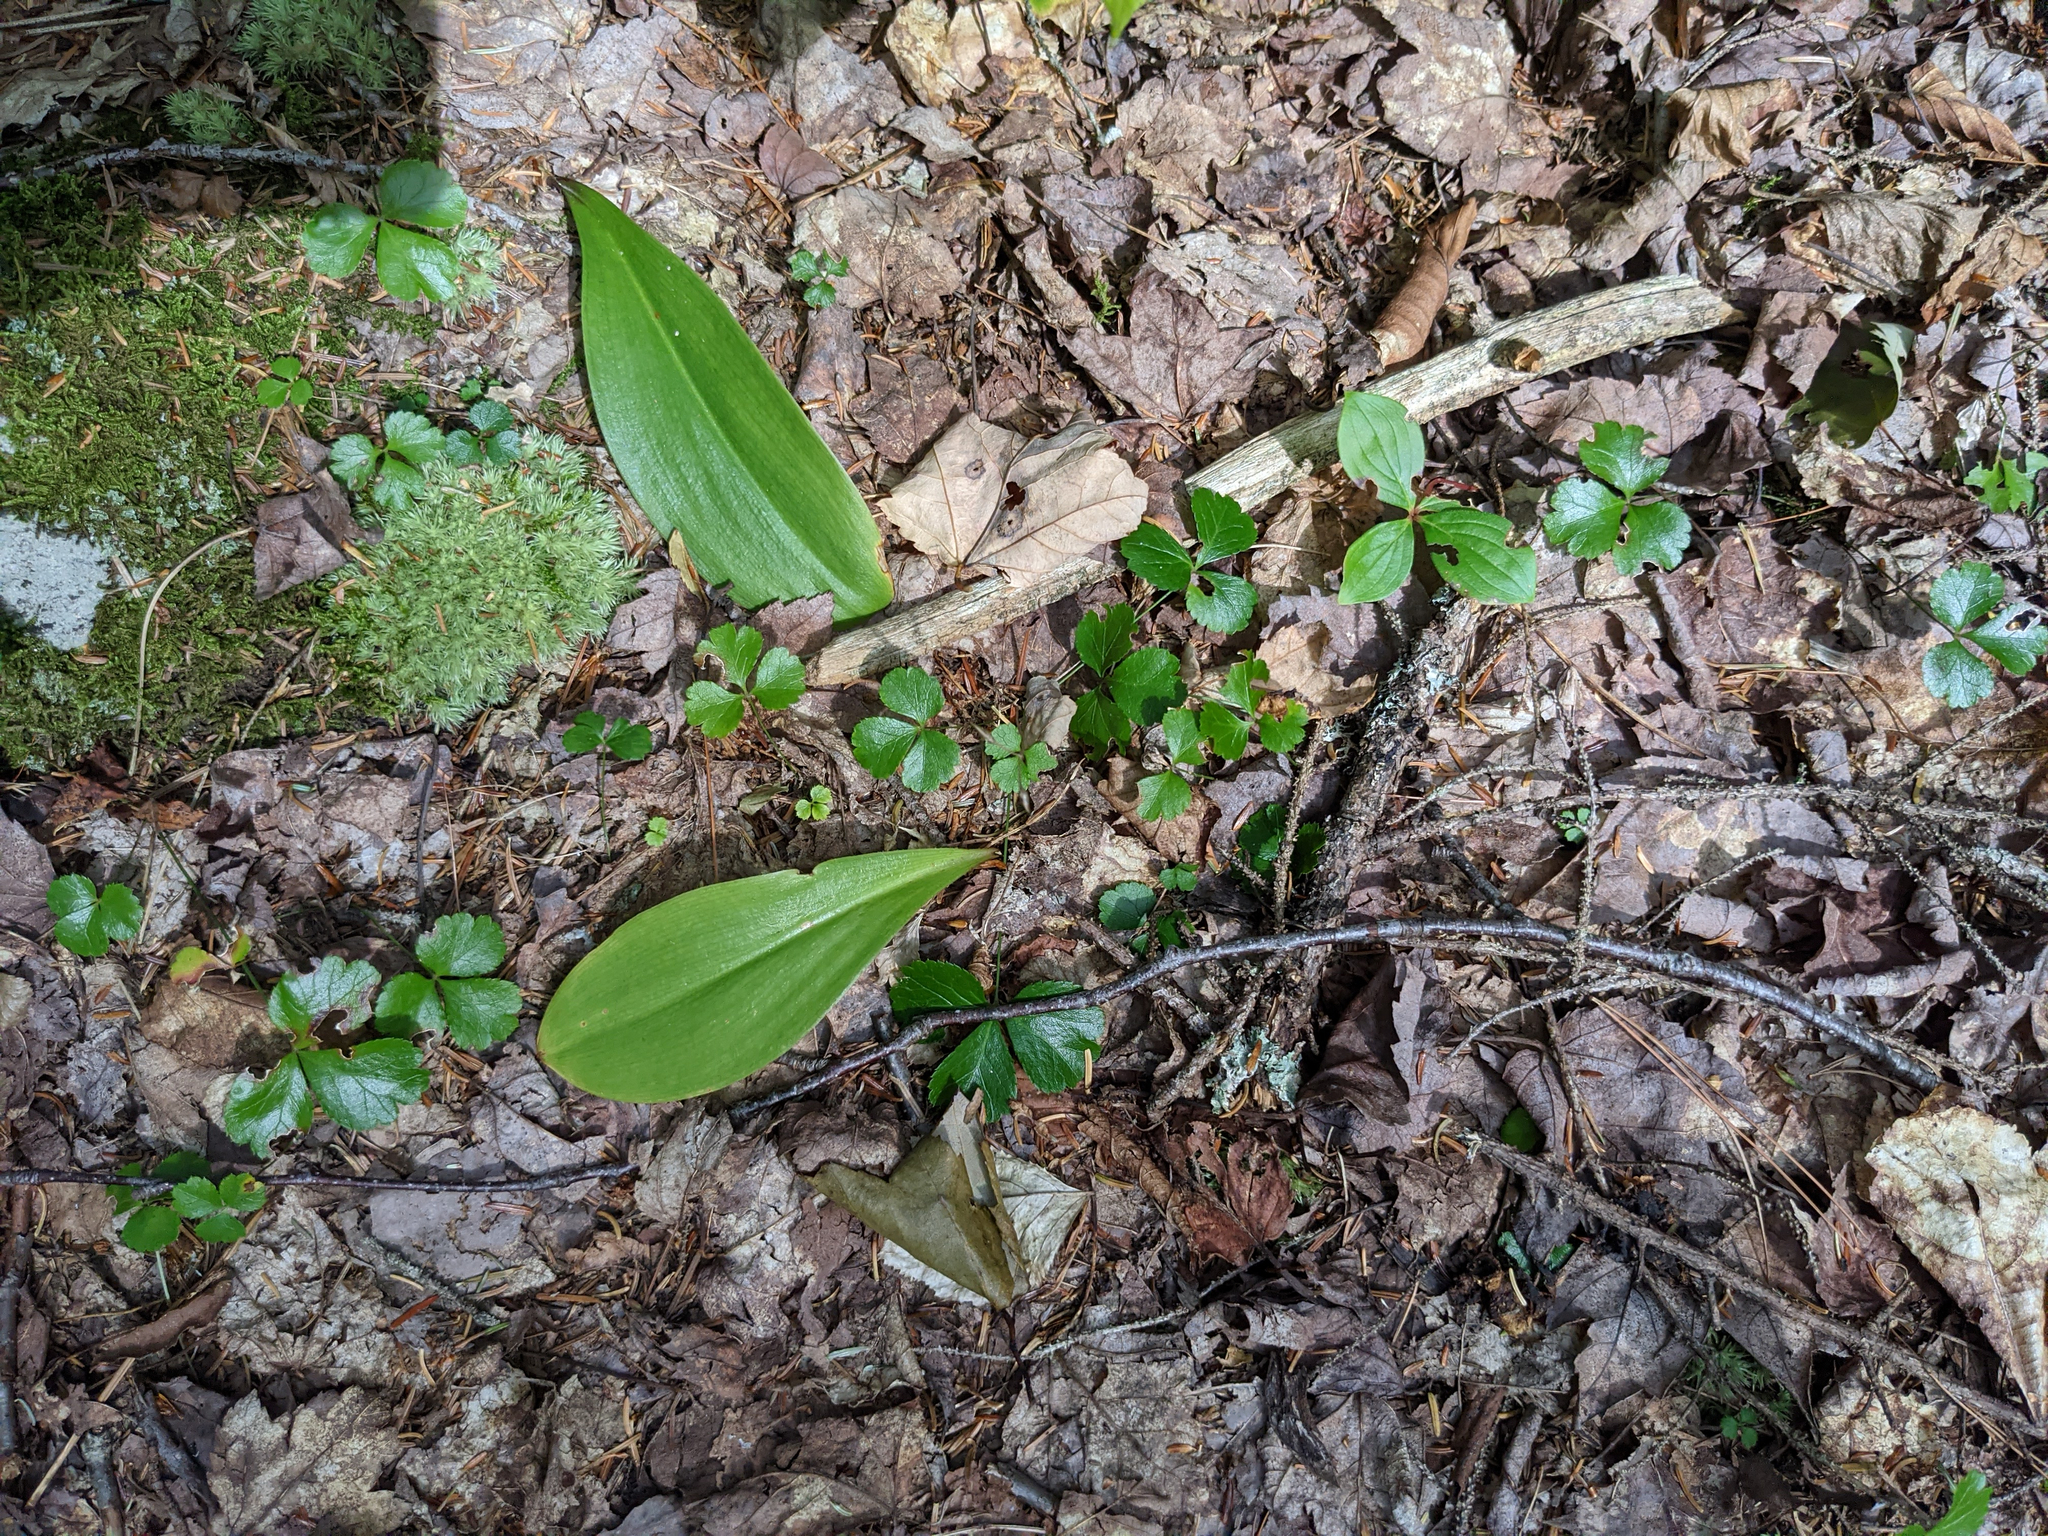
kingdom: Plantae
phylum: Tracheophyta
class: Liliopsida
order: Liliales
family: Liliaceae
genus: Clintonia
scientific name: Clintonia borealis
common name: Yellow clintonia
